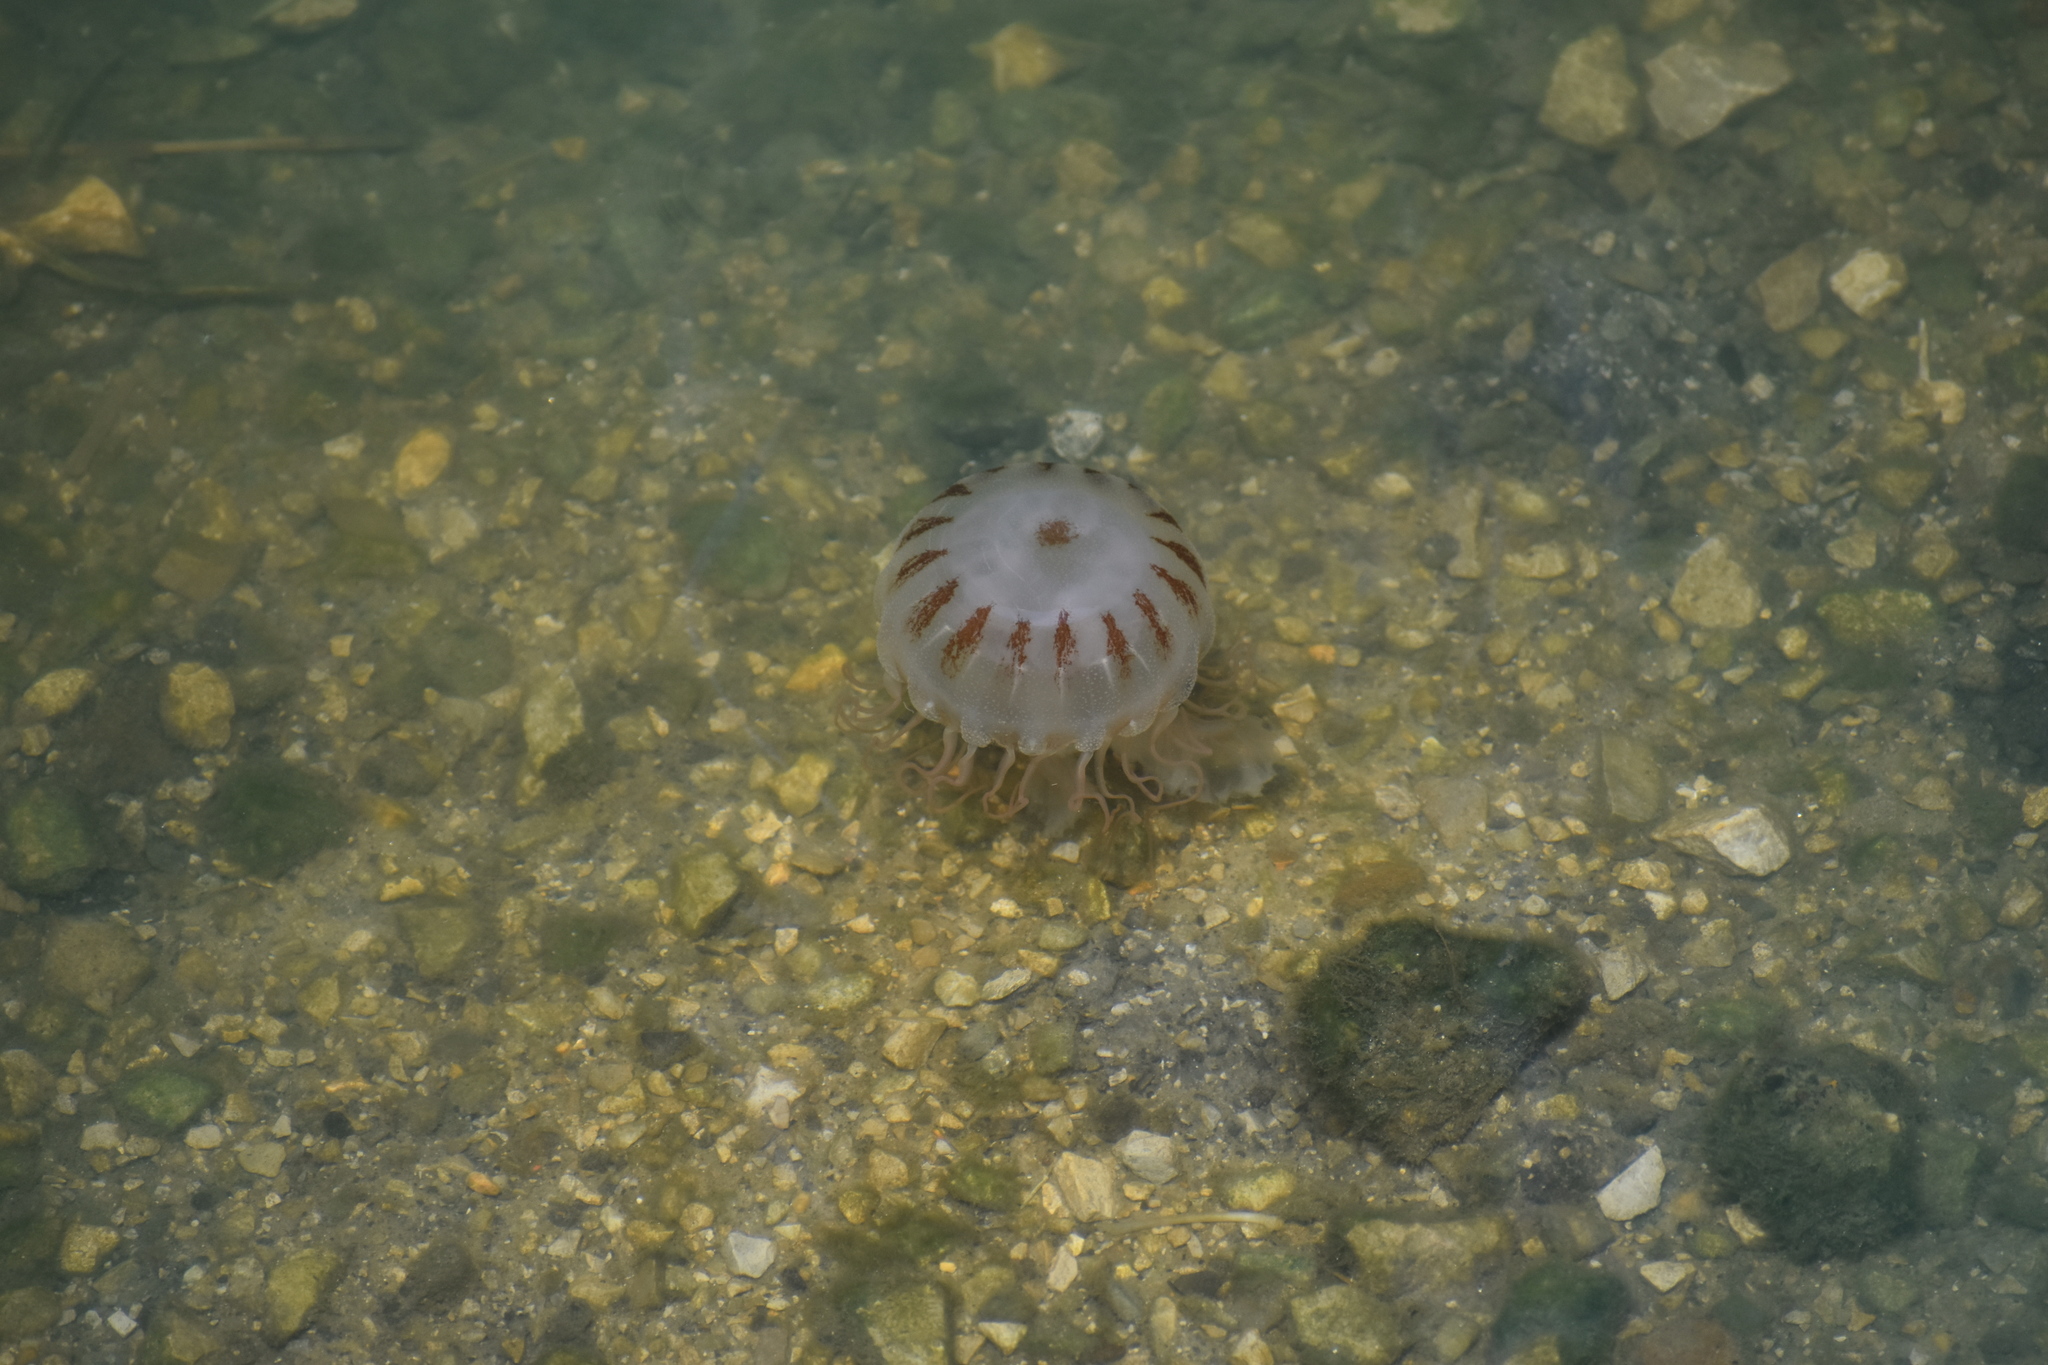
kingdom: Animalia
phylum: Cnidaria
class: Scyphozoa
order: Semaeostomeae
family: Pelagiidae
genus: Chrysaora
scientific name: Chrysaora chesapeakei
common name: Bay nettle
